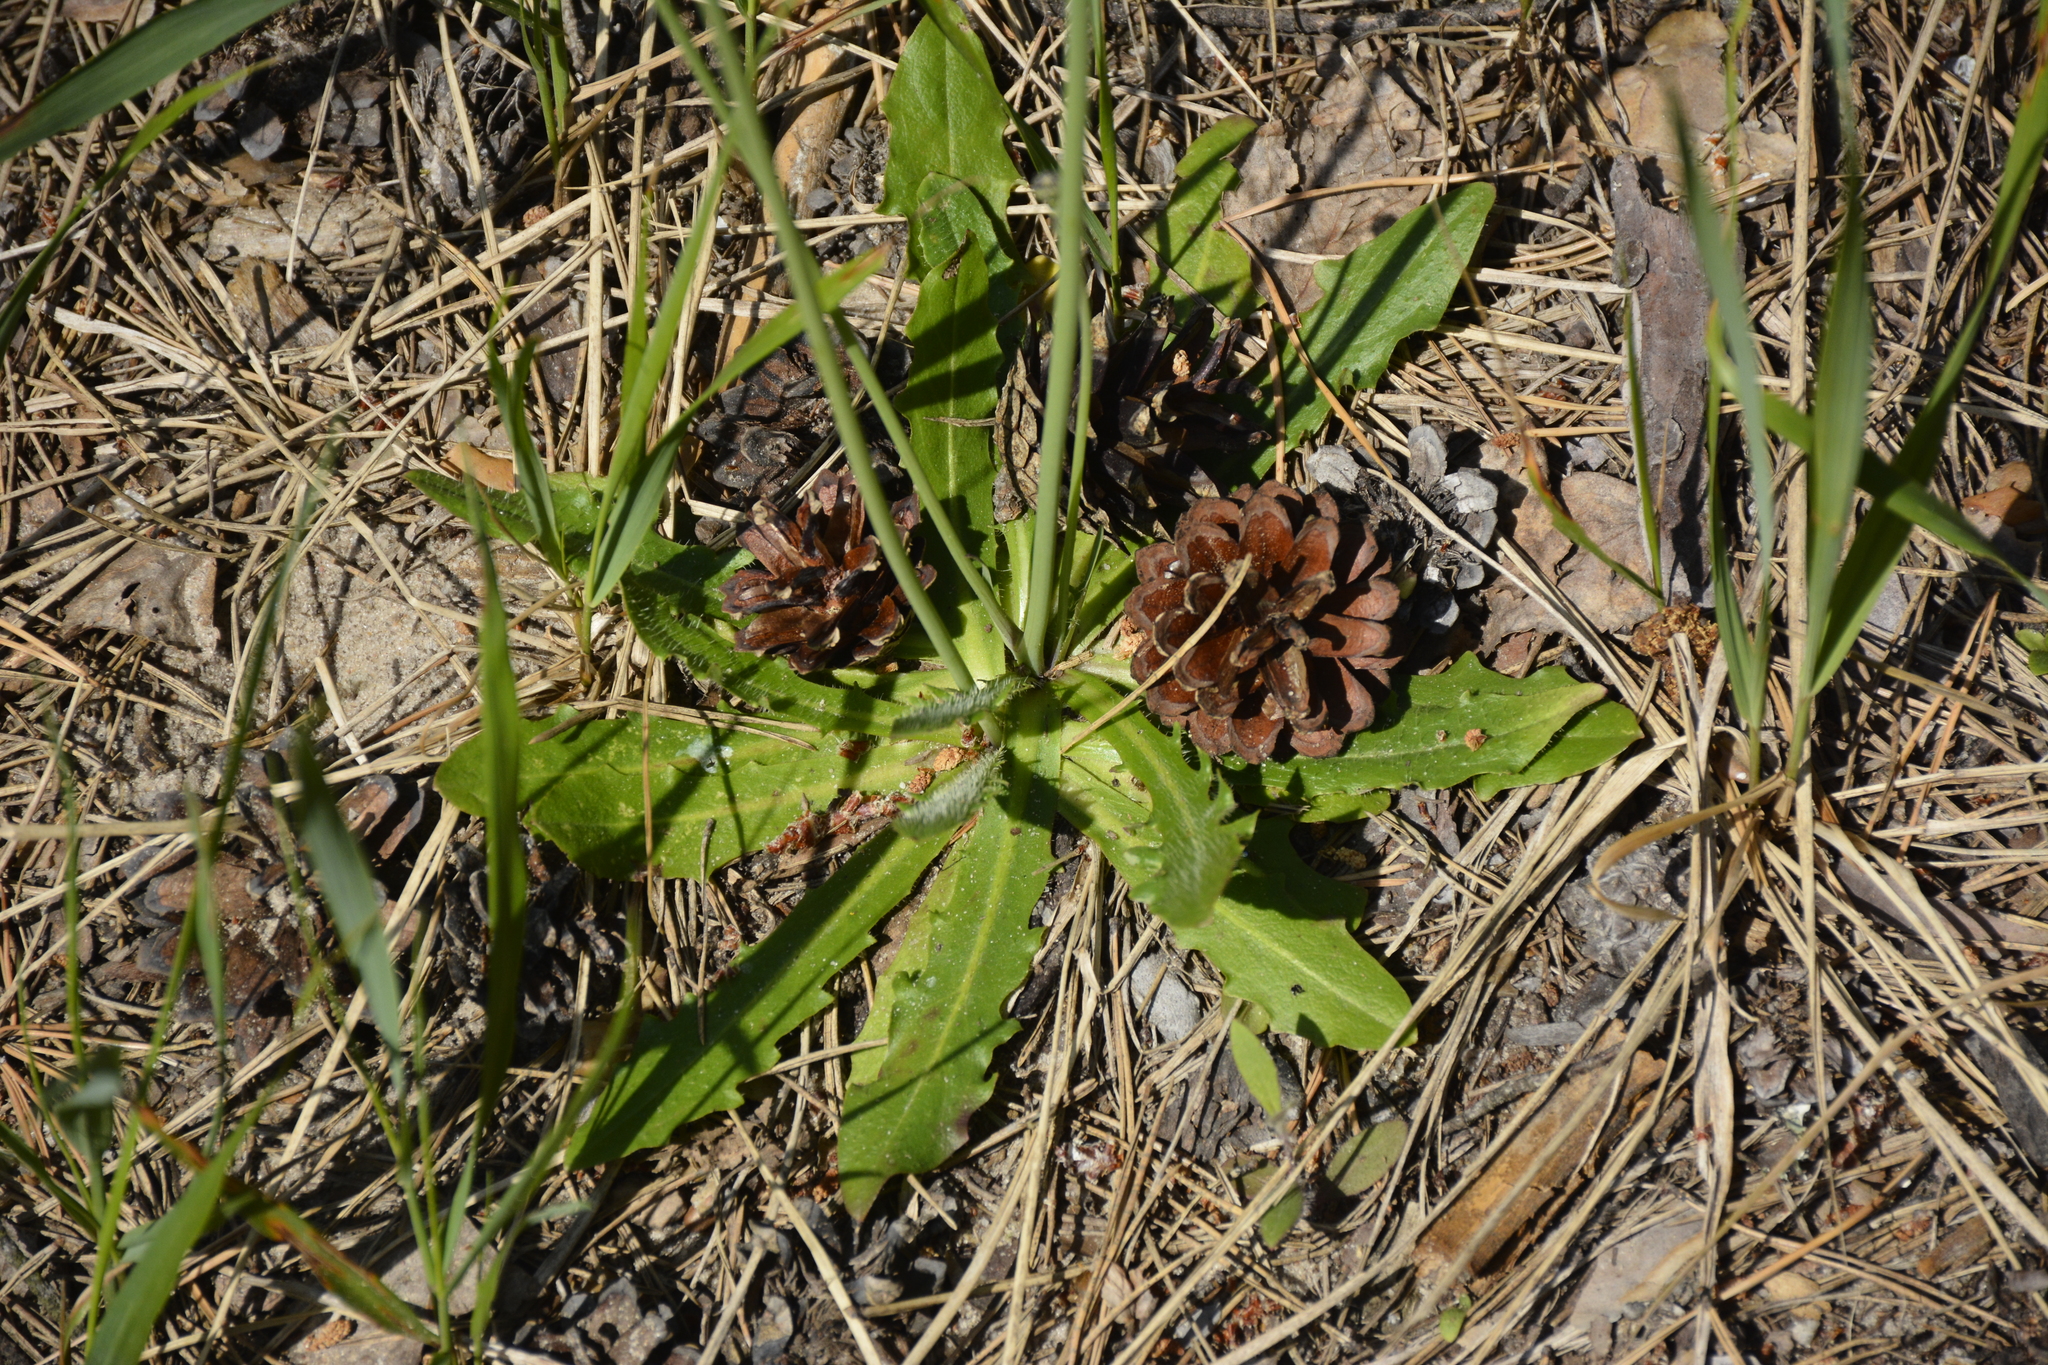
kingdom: Plantae
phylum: Tracheophyta
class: Magnoliopsida
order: Asterales
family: Asteraceae
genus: Hypochaeris
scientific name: Hypochaeris radicata
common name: Flatweed
